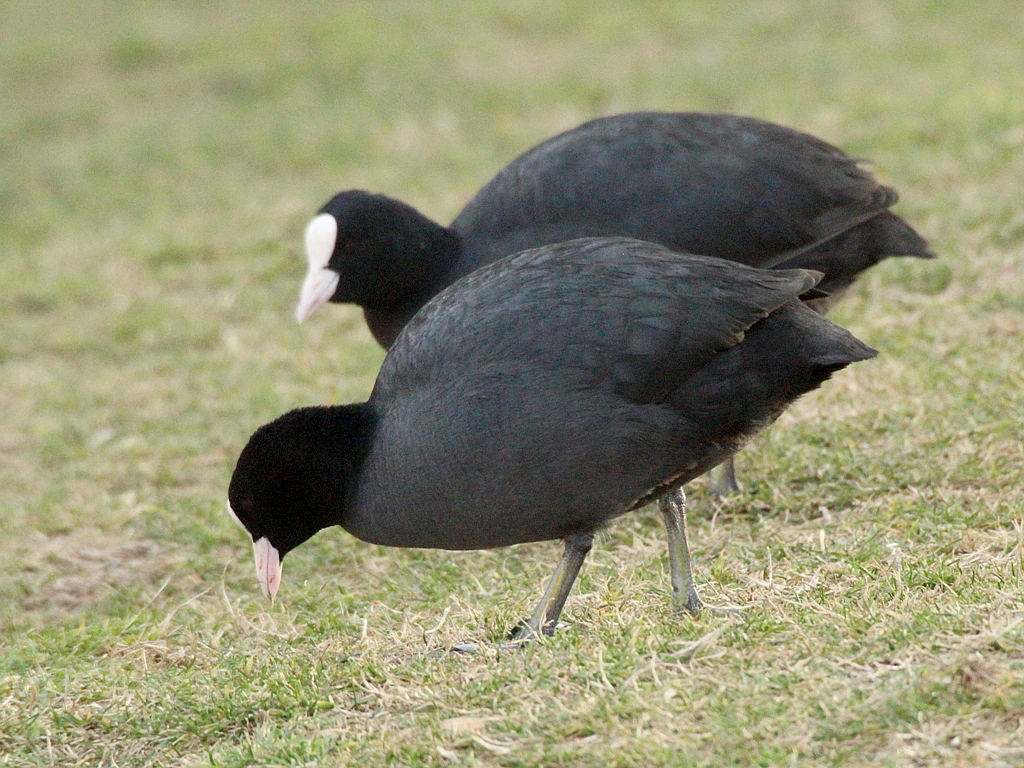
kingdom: Animalia
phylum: Chordata
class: Aves
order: Gruiformes
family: Rallidae
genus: Fulica
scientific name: Fulica atra
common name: Eurasian coot
